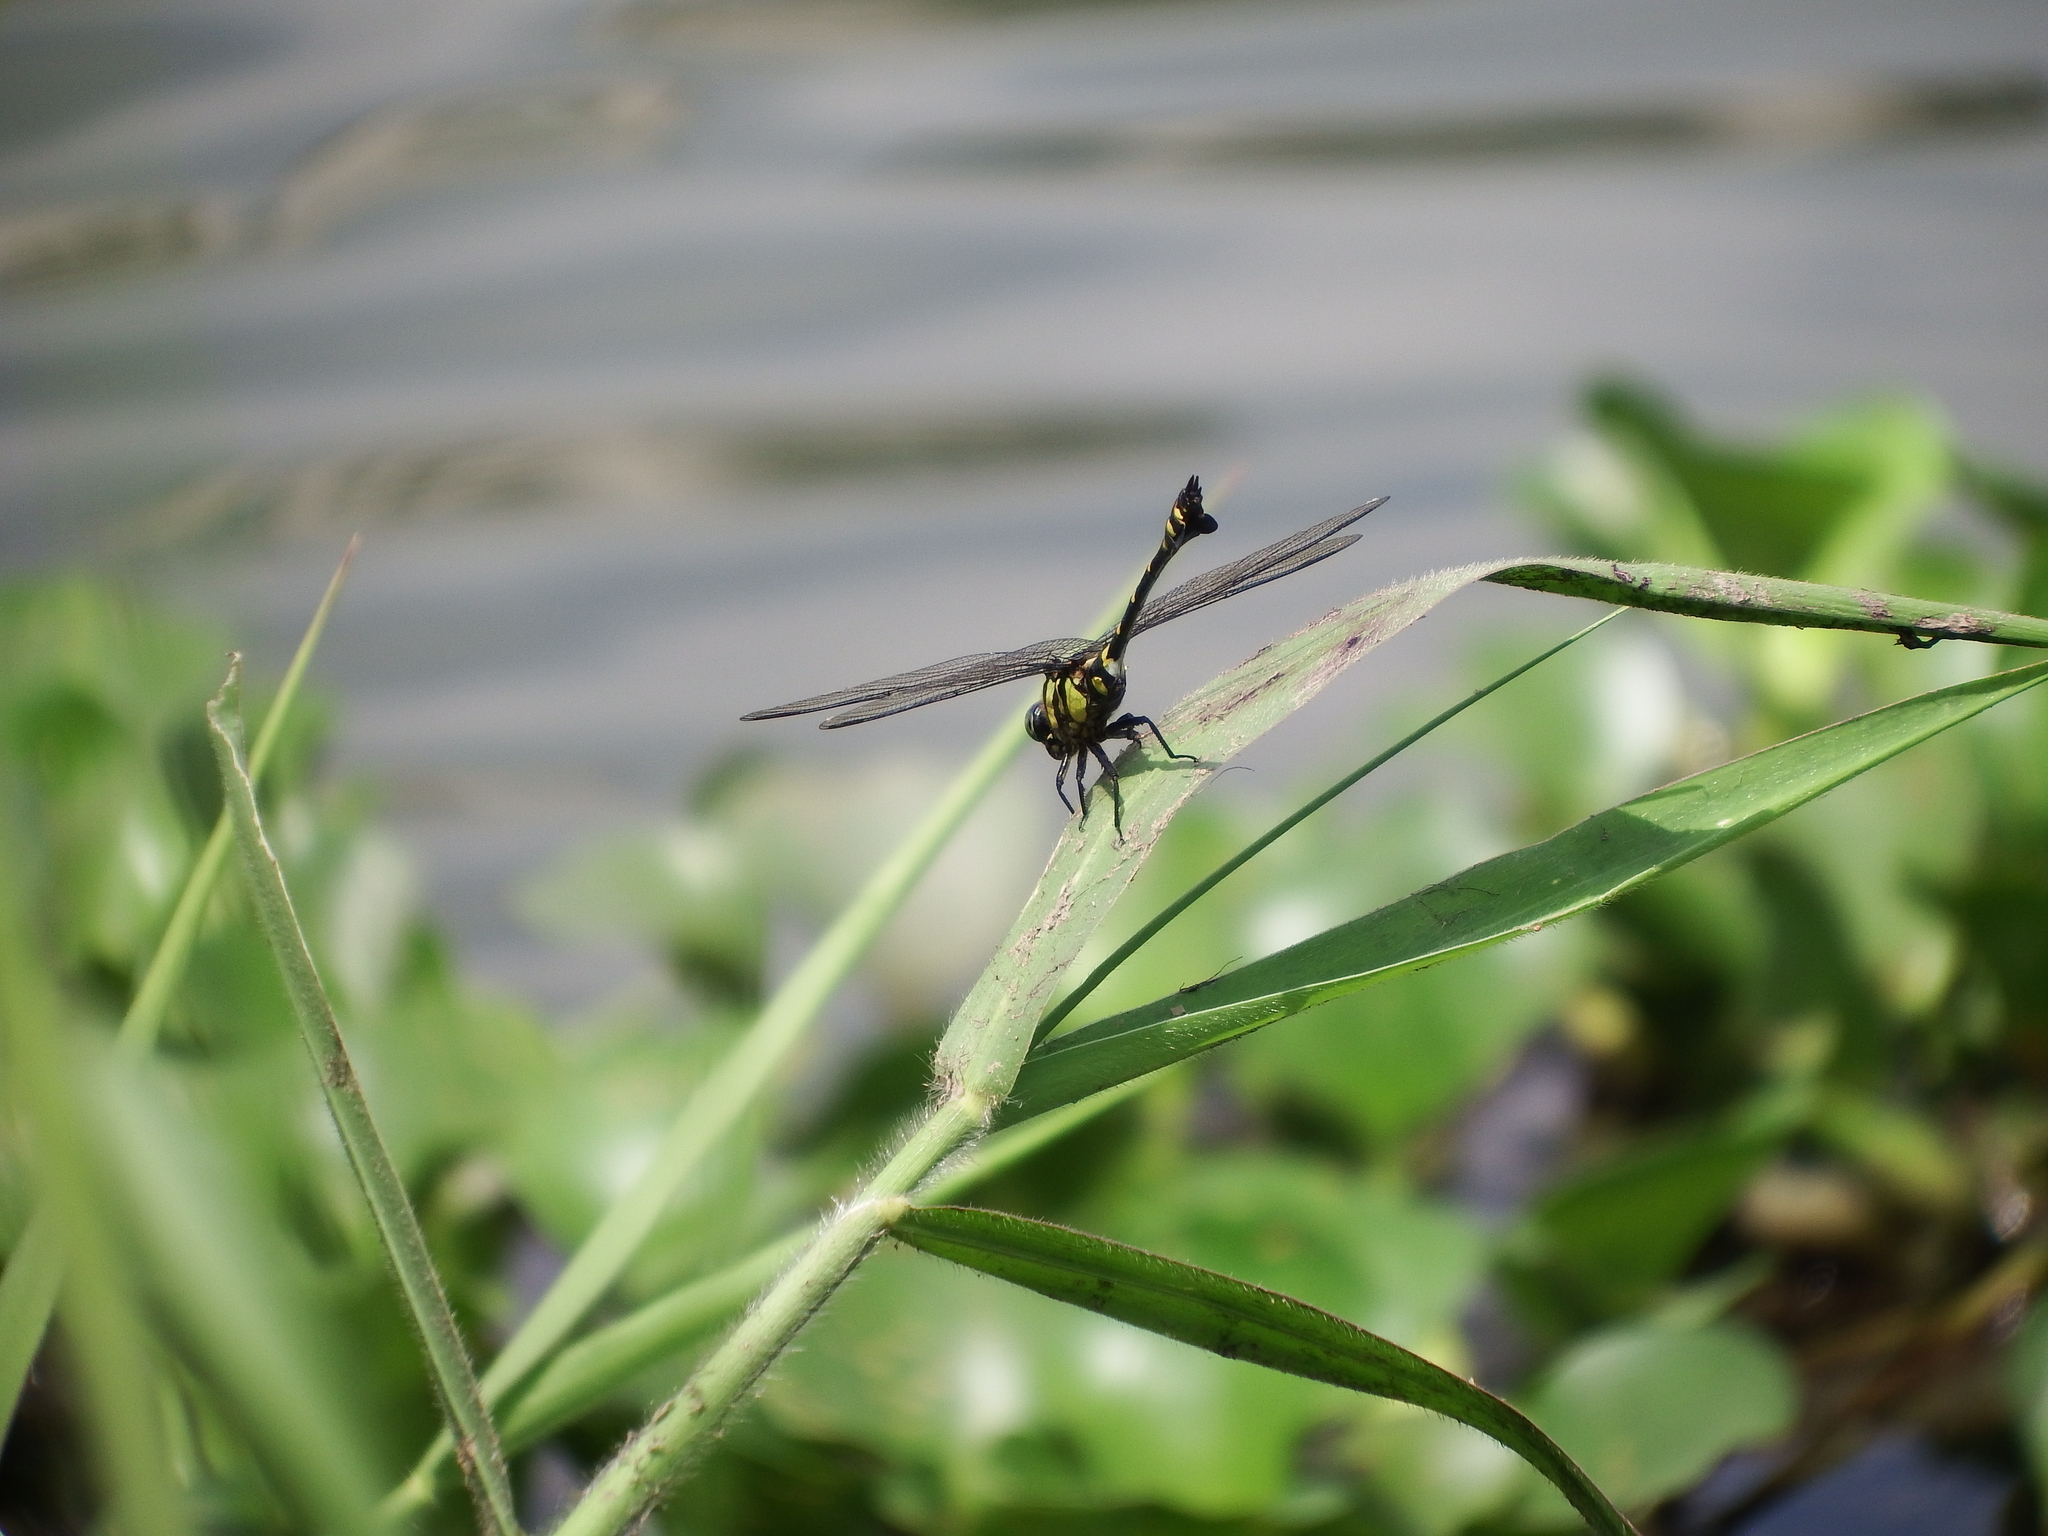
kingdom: Animalia
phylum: Arthropoda
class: Insecta
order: Odonata
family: Gomphidae
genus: Ictinogomphus
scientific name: Ictinogomphus rapax
